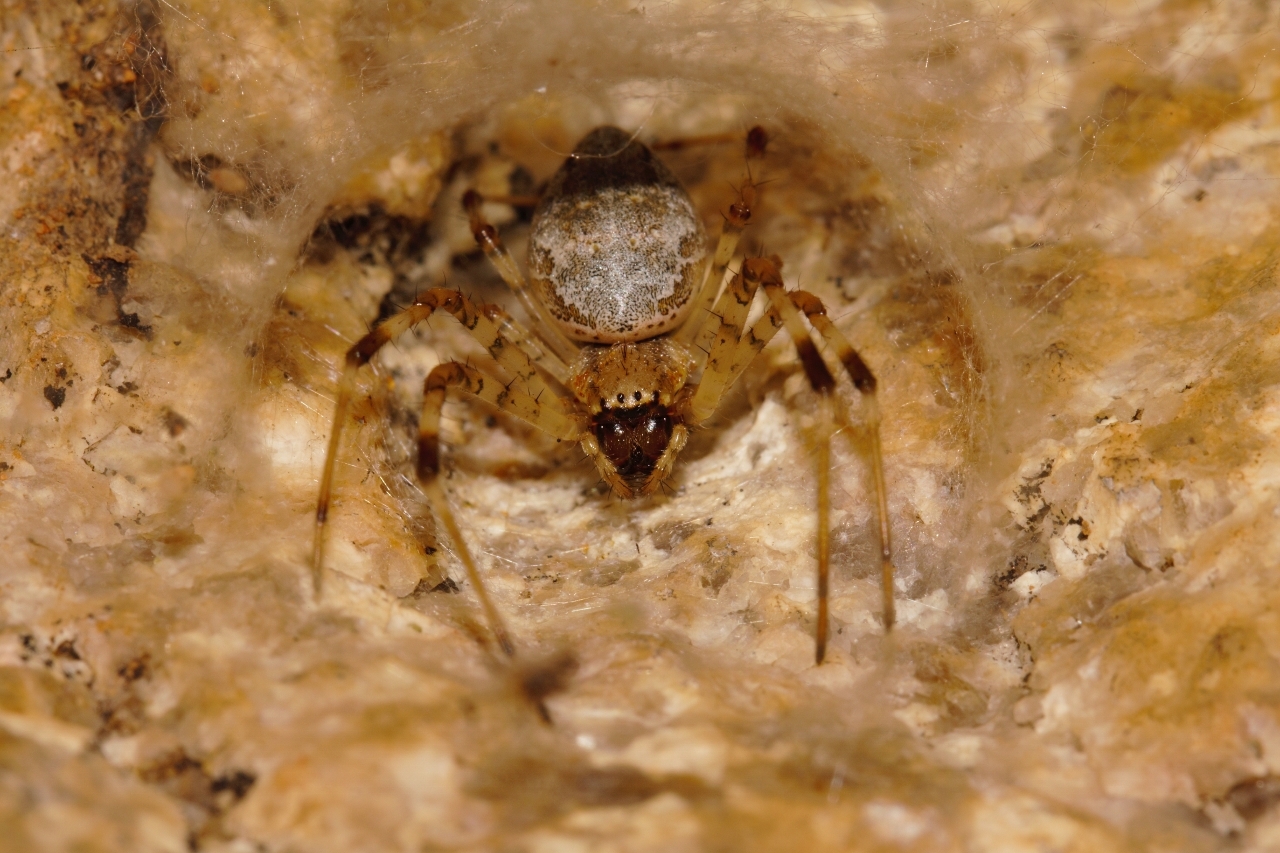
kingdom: Animalia
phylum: Arthropoda
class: Arachnida
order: Araneae
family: Araneidae
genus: Nephilingis
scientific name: Nephilingis cruentata
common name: African hermit spider
